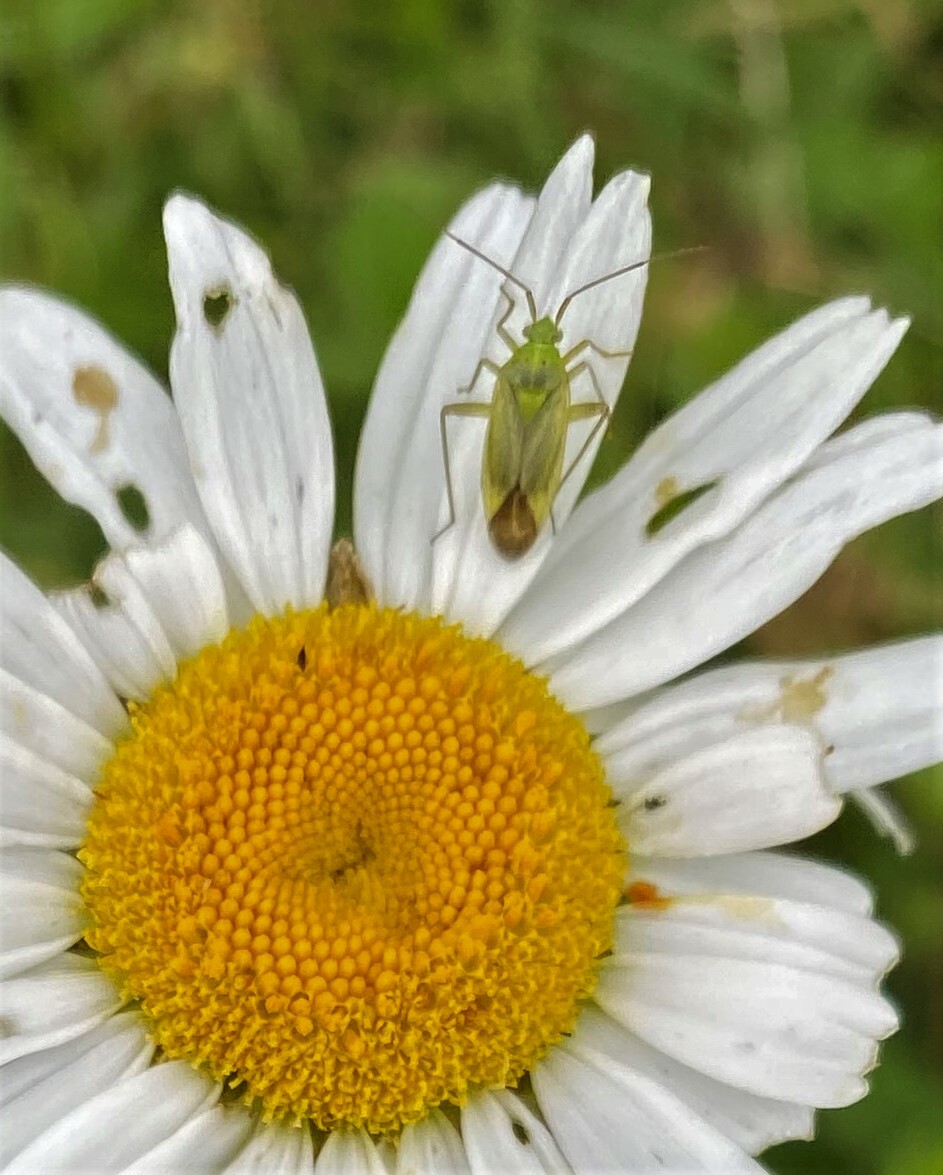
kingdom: Animalia
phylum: Arthropoda
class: Insecta
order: Hemiptera
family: Miridae
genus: Closterotomus
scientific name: Closterotomus norvegicus
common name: Plant bug
